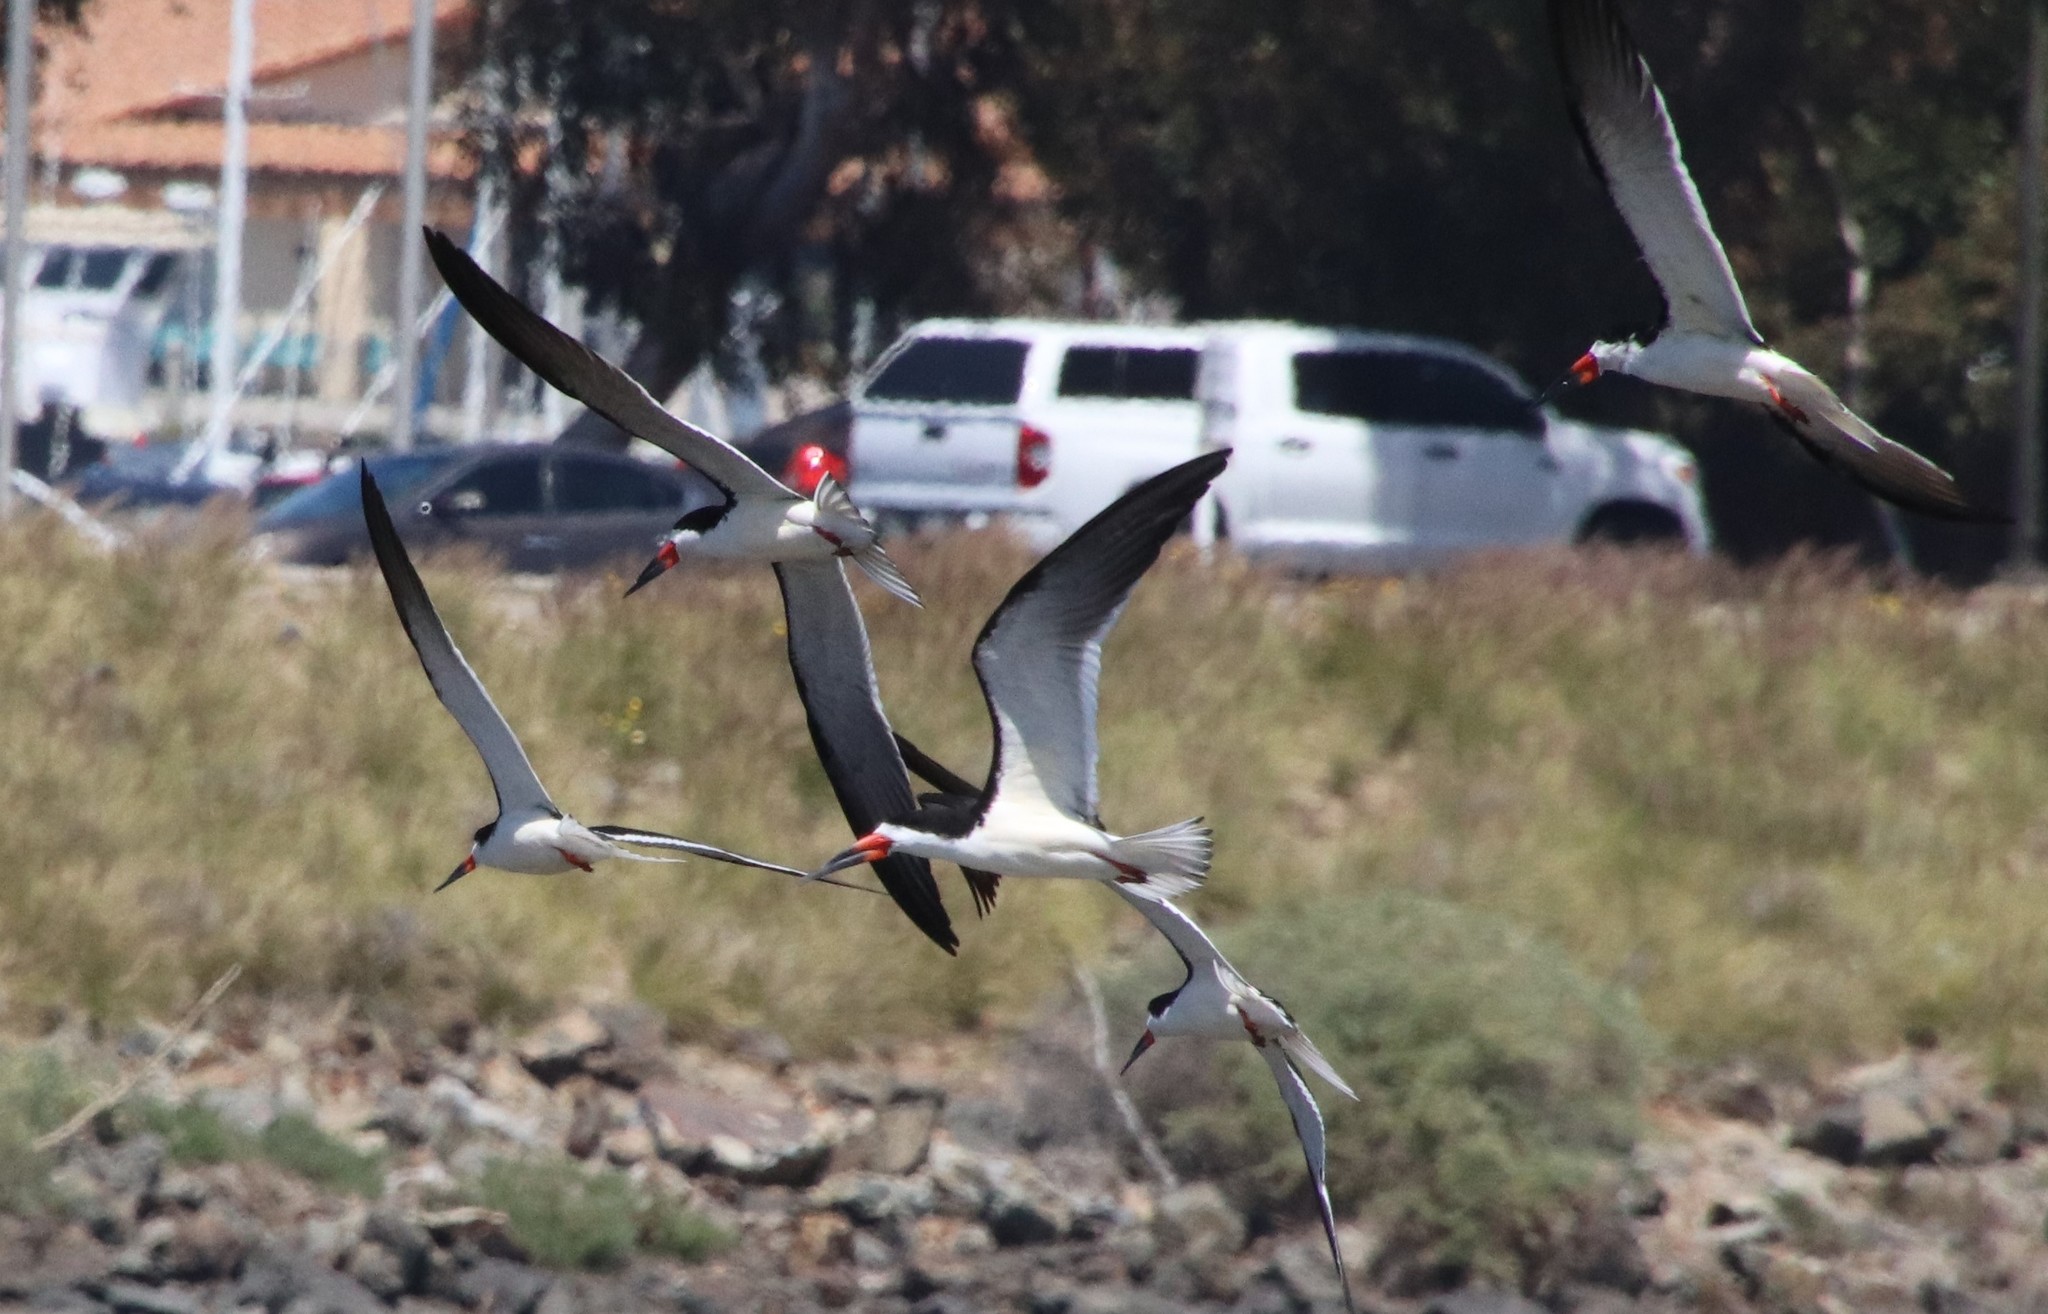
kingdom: Animalia
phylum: Chordata
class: Aves
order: Charadriiformes
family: Laridae
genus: Rynchops
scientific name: Rynchops niger
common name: Black skimmer
